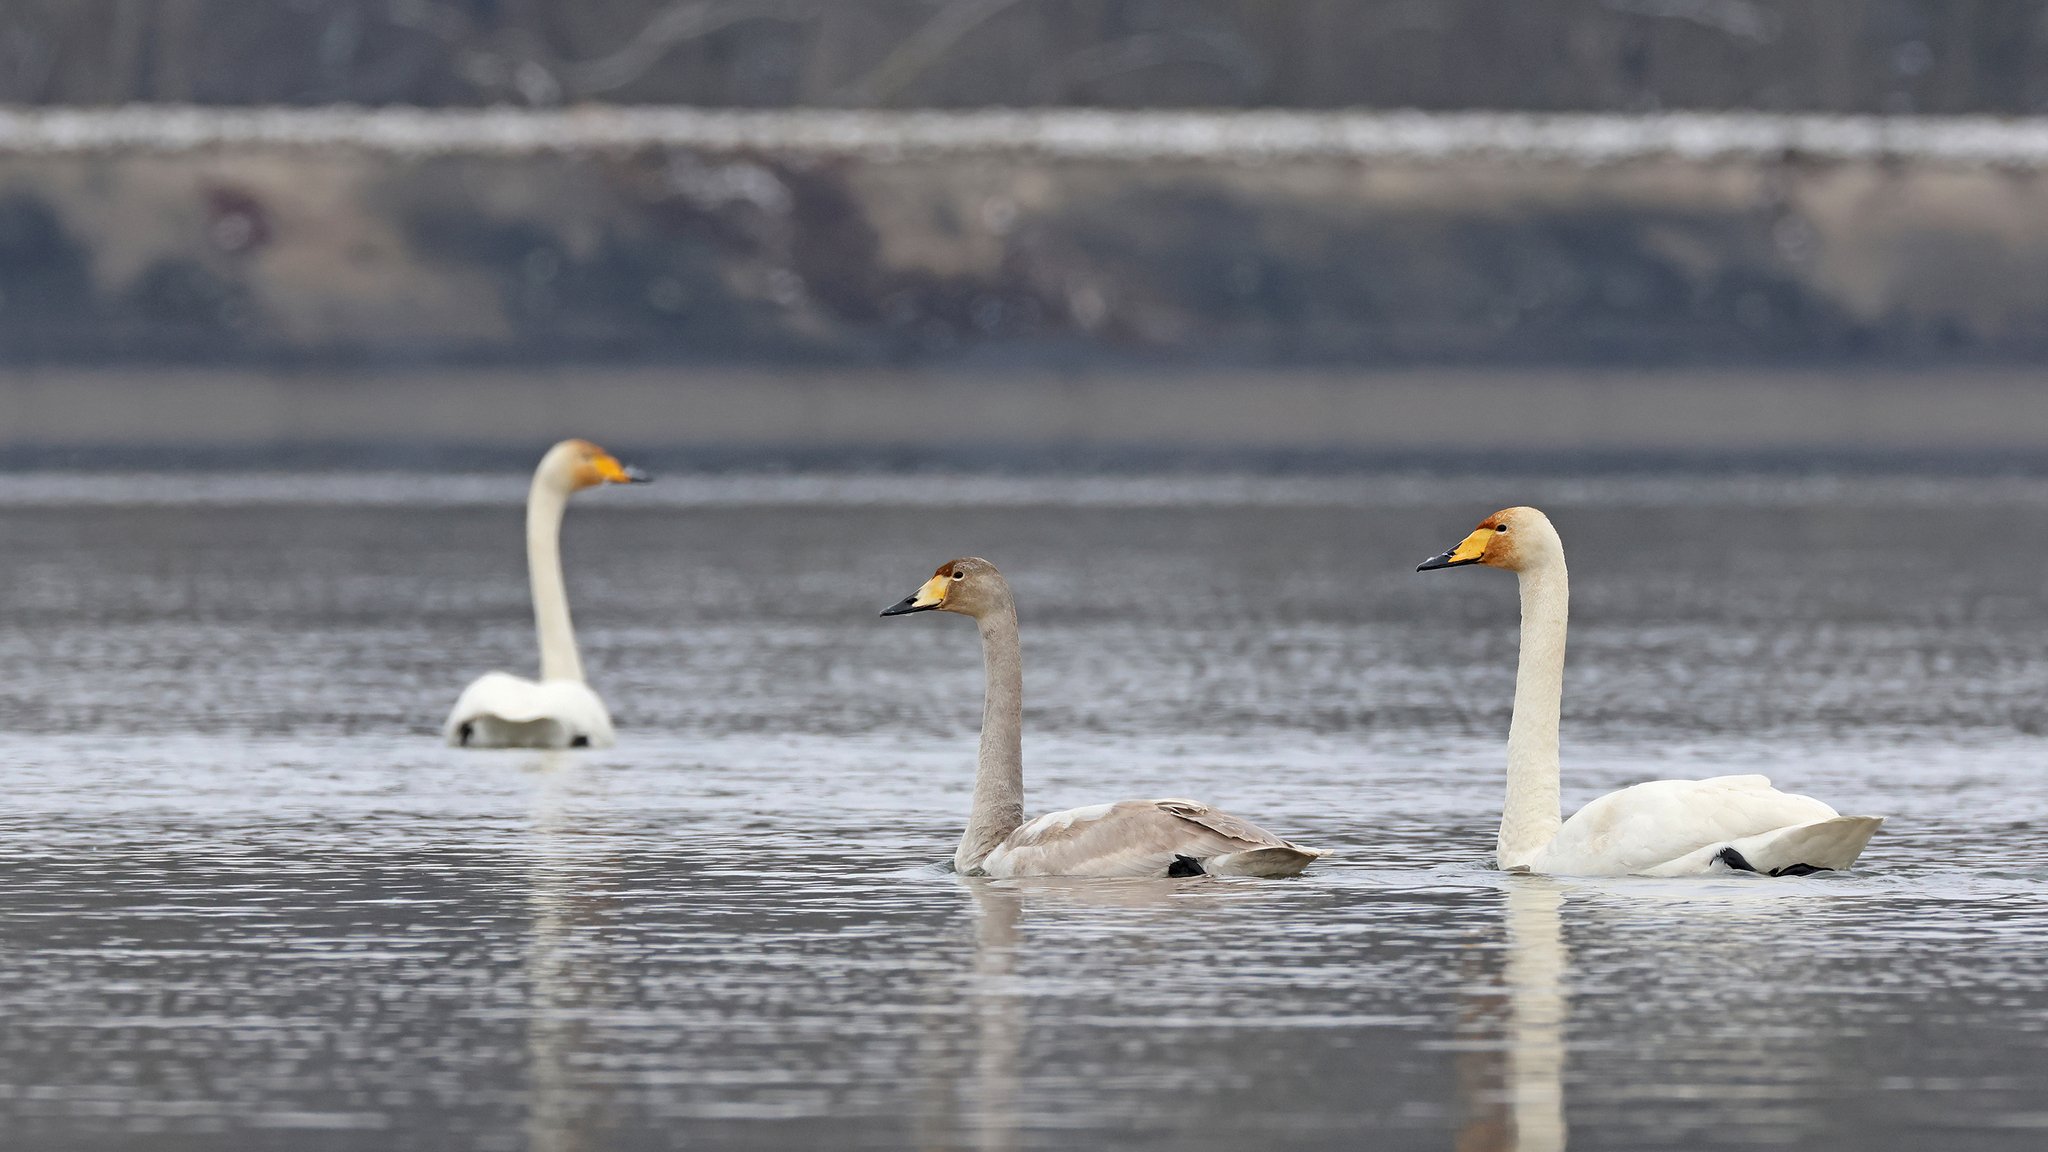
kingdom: Animalia
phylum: Chordata
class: Aves
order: Anseriformes
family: Anatidae
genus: Cygnus
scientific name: Cygnus cygnus
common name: Whooper swan
